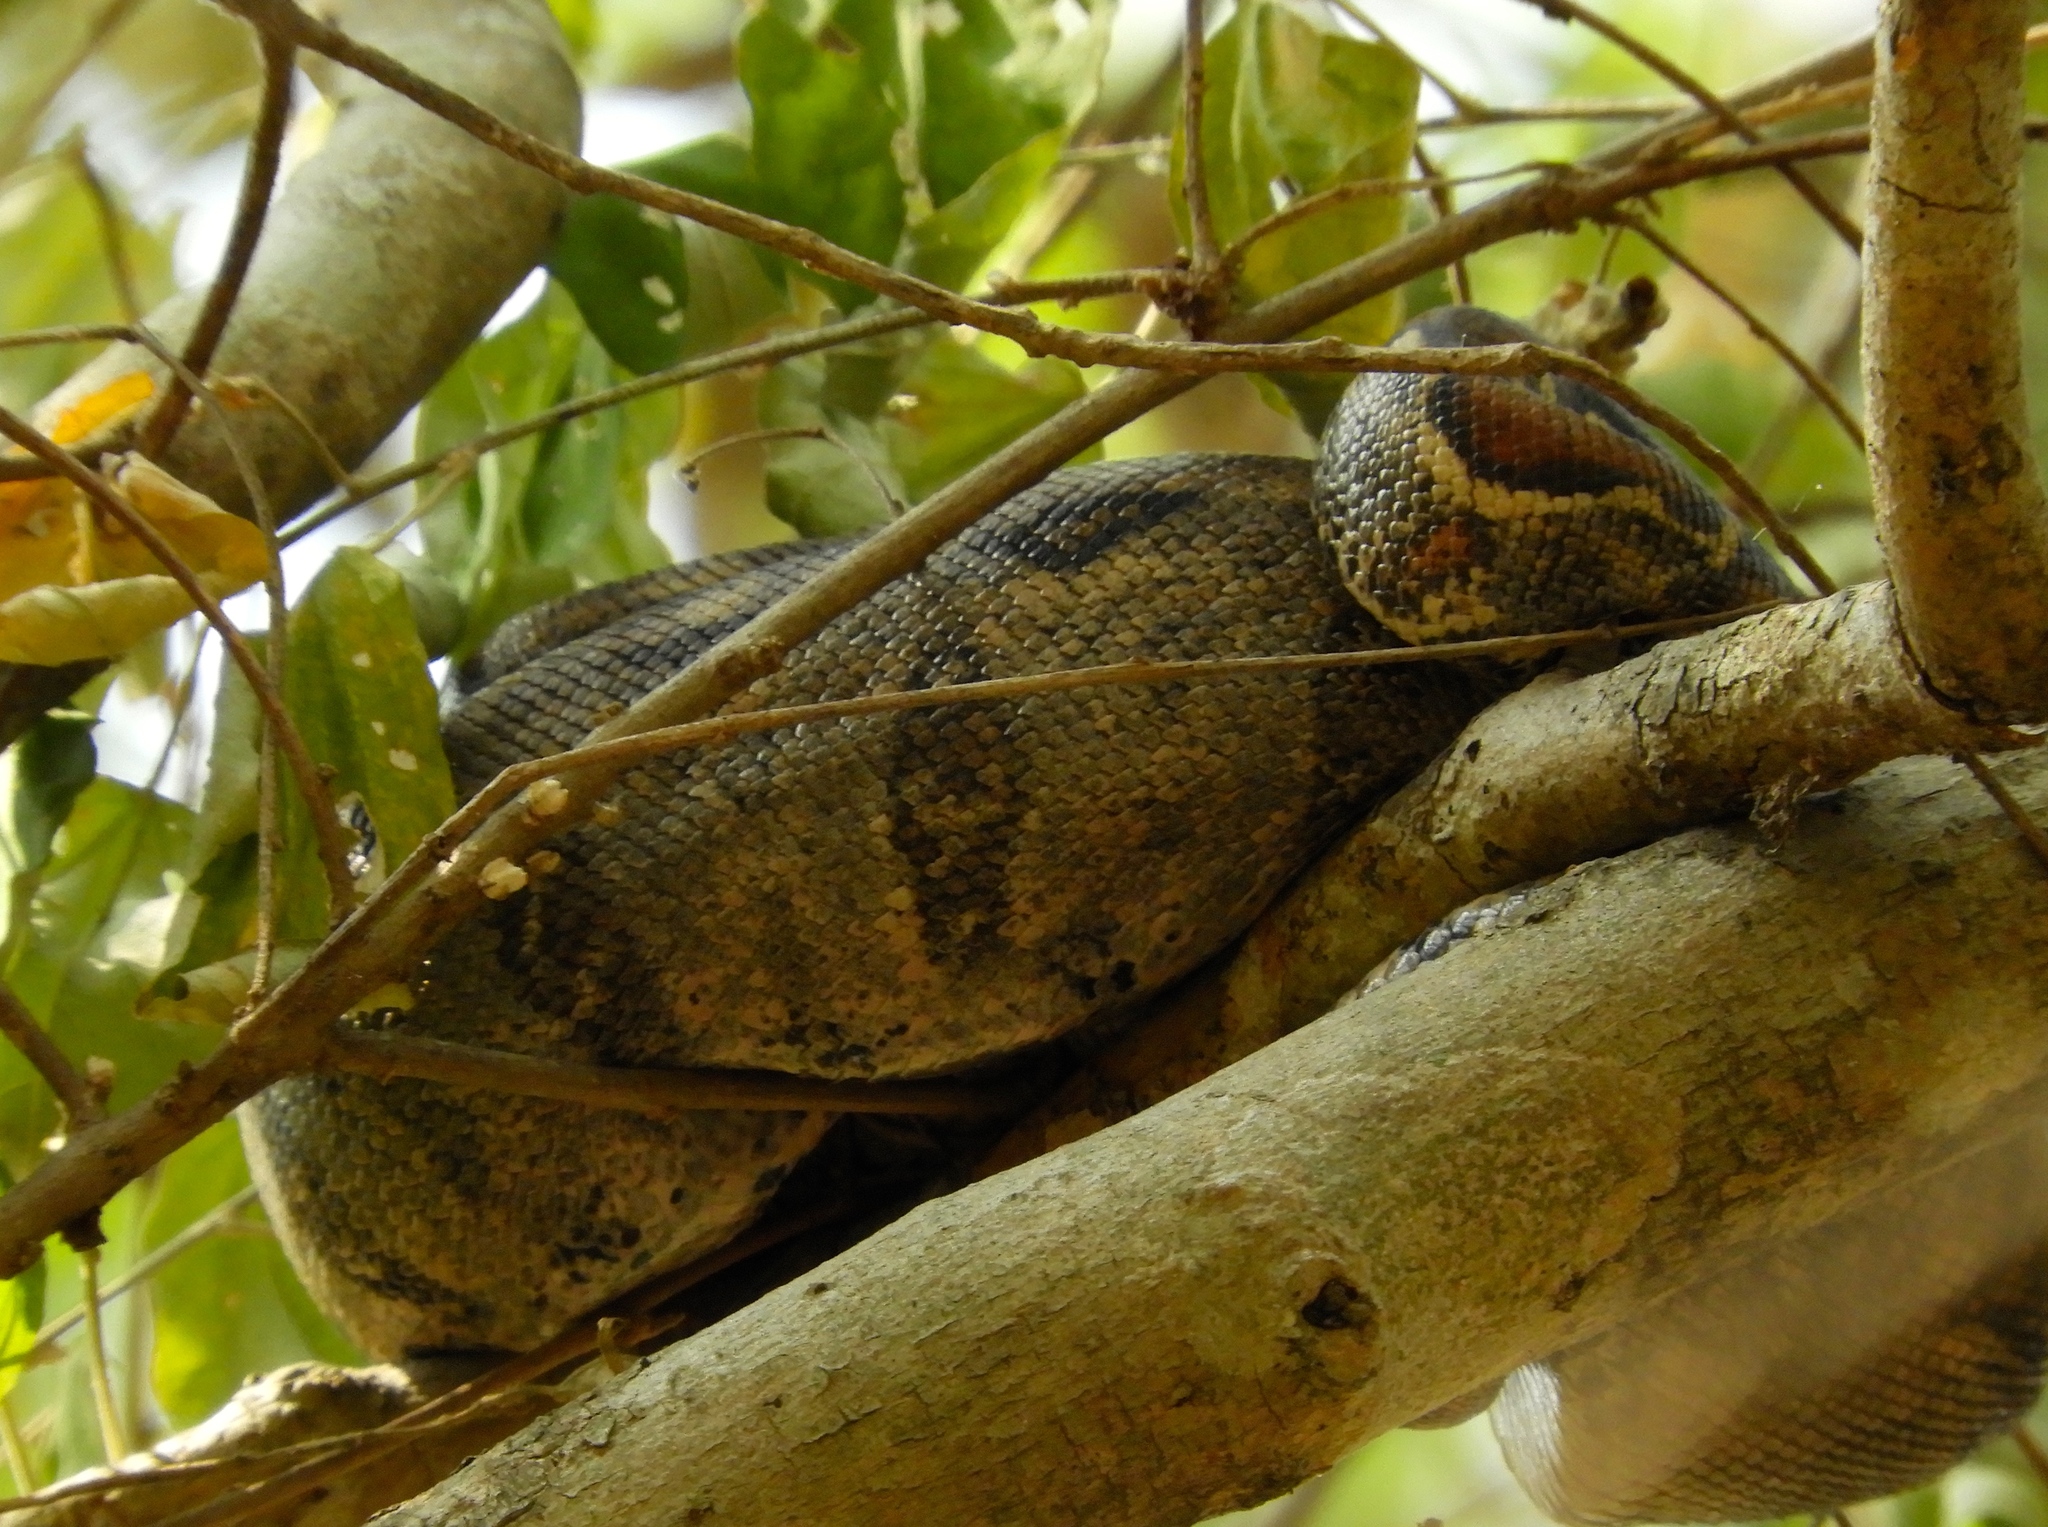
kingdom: Animalia
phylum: Chordata
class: Squamata
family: Boidae
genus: Boa
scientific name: Boa
